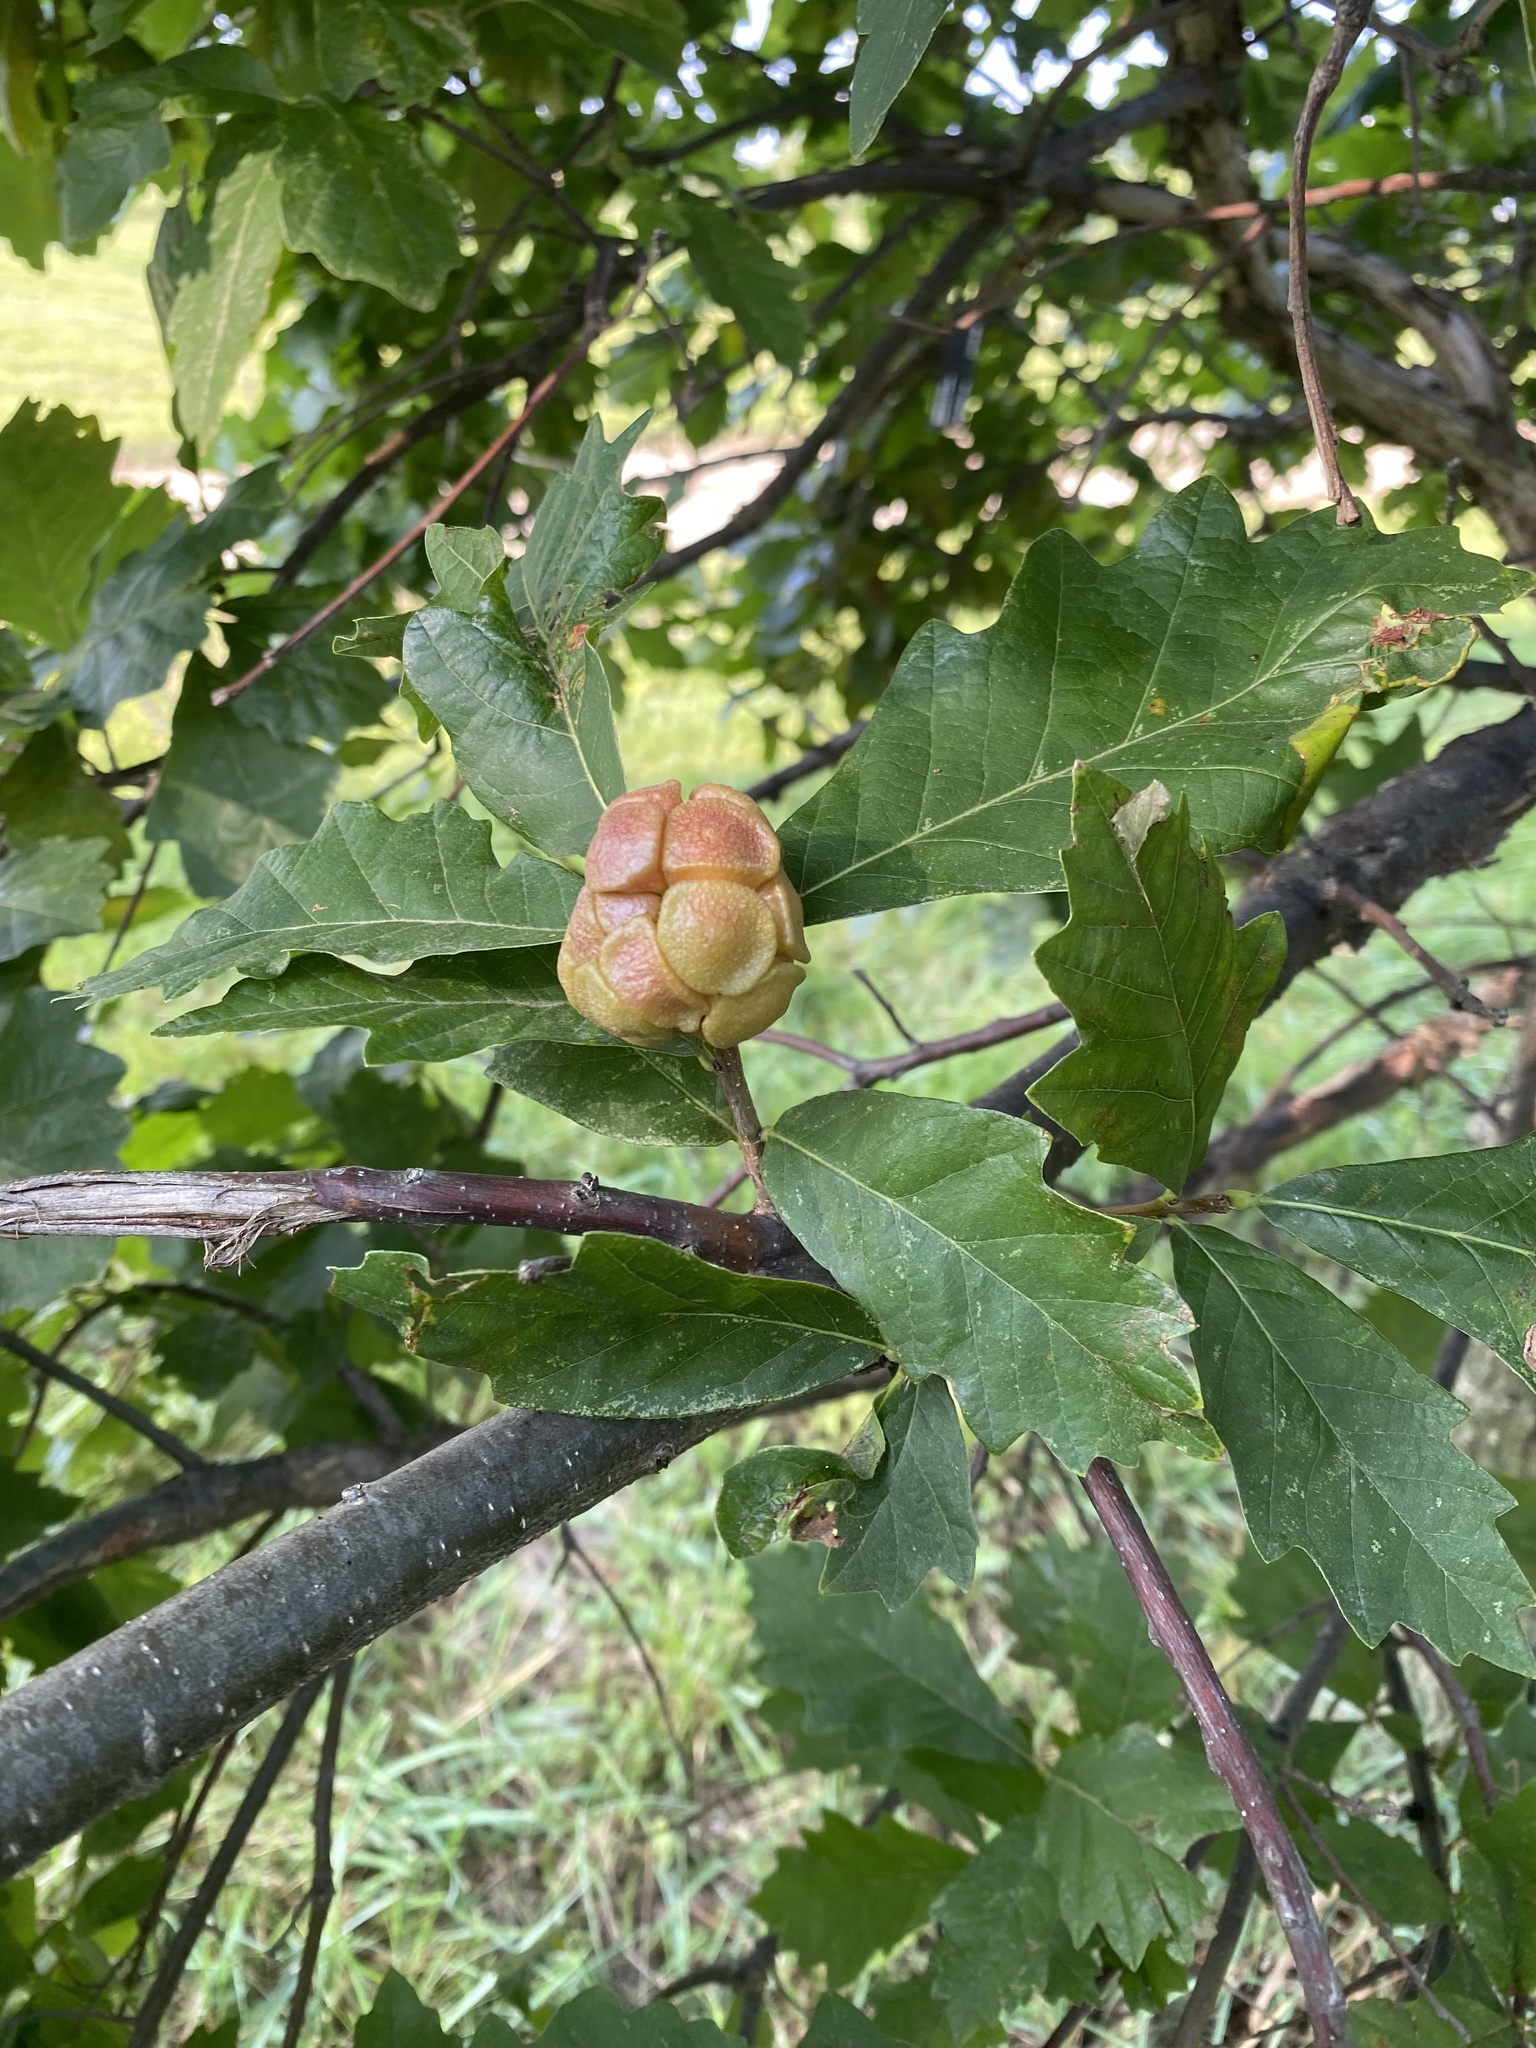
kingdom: Animalia
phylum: Arthropoda
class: Insecta
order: Hymenoptera
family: Cynipidae
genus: Andricus
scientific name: Andricus
